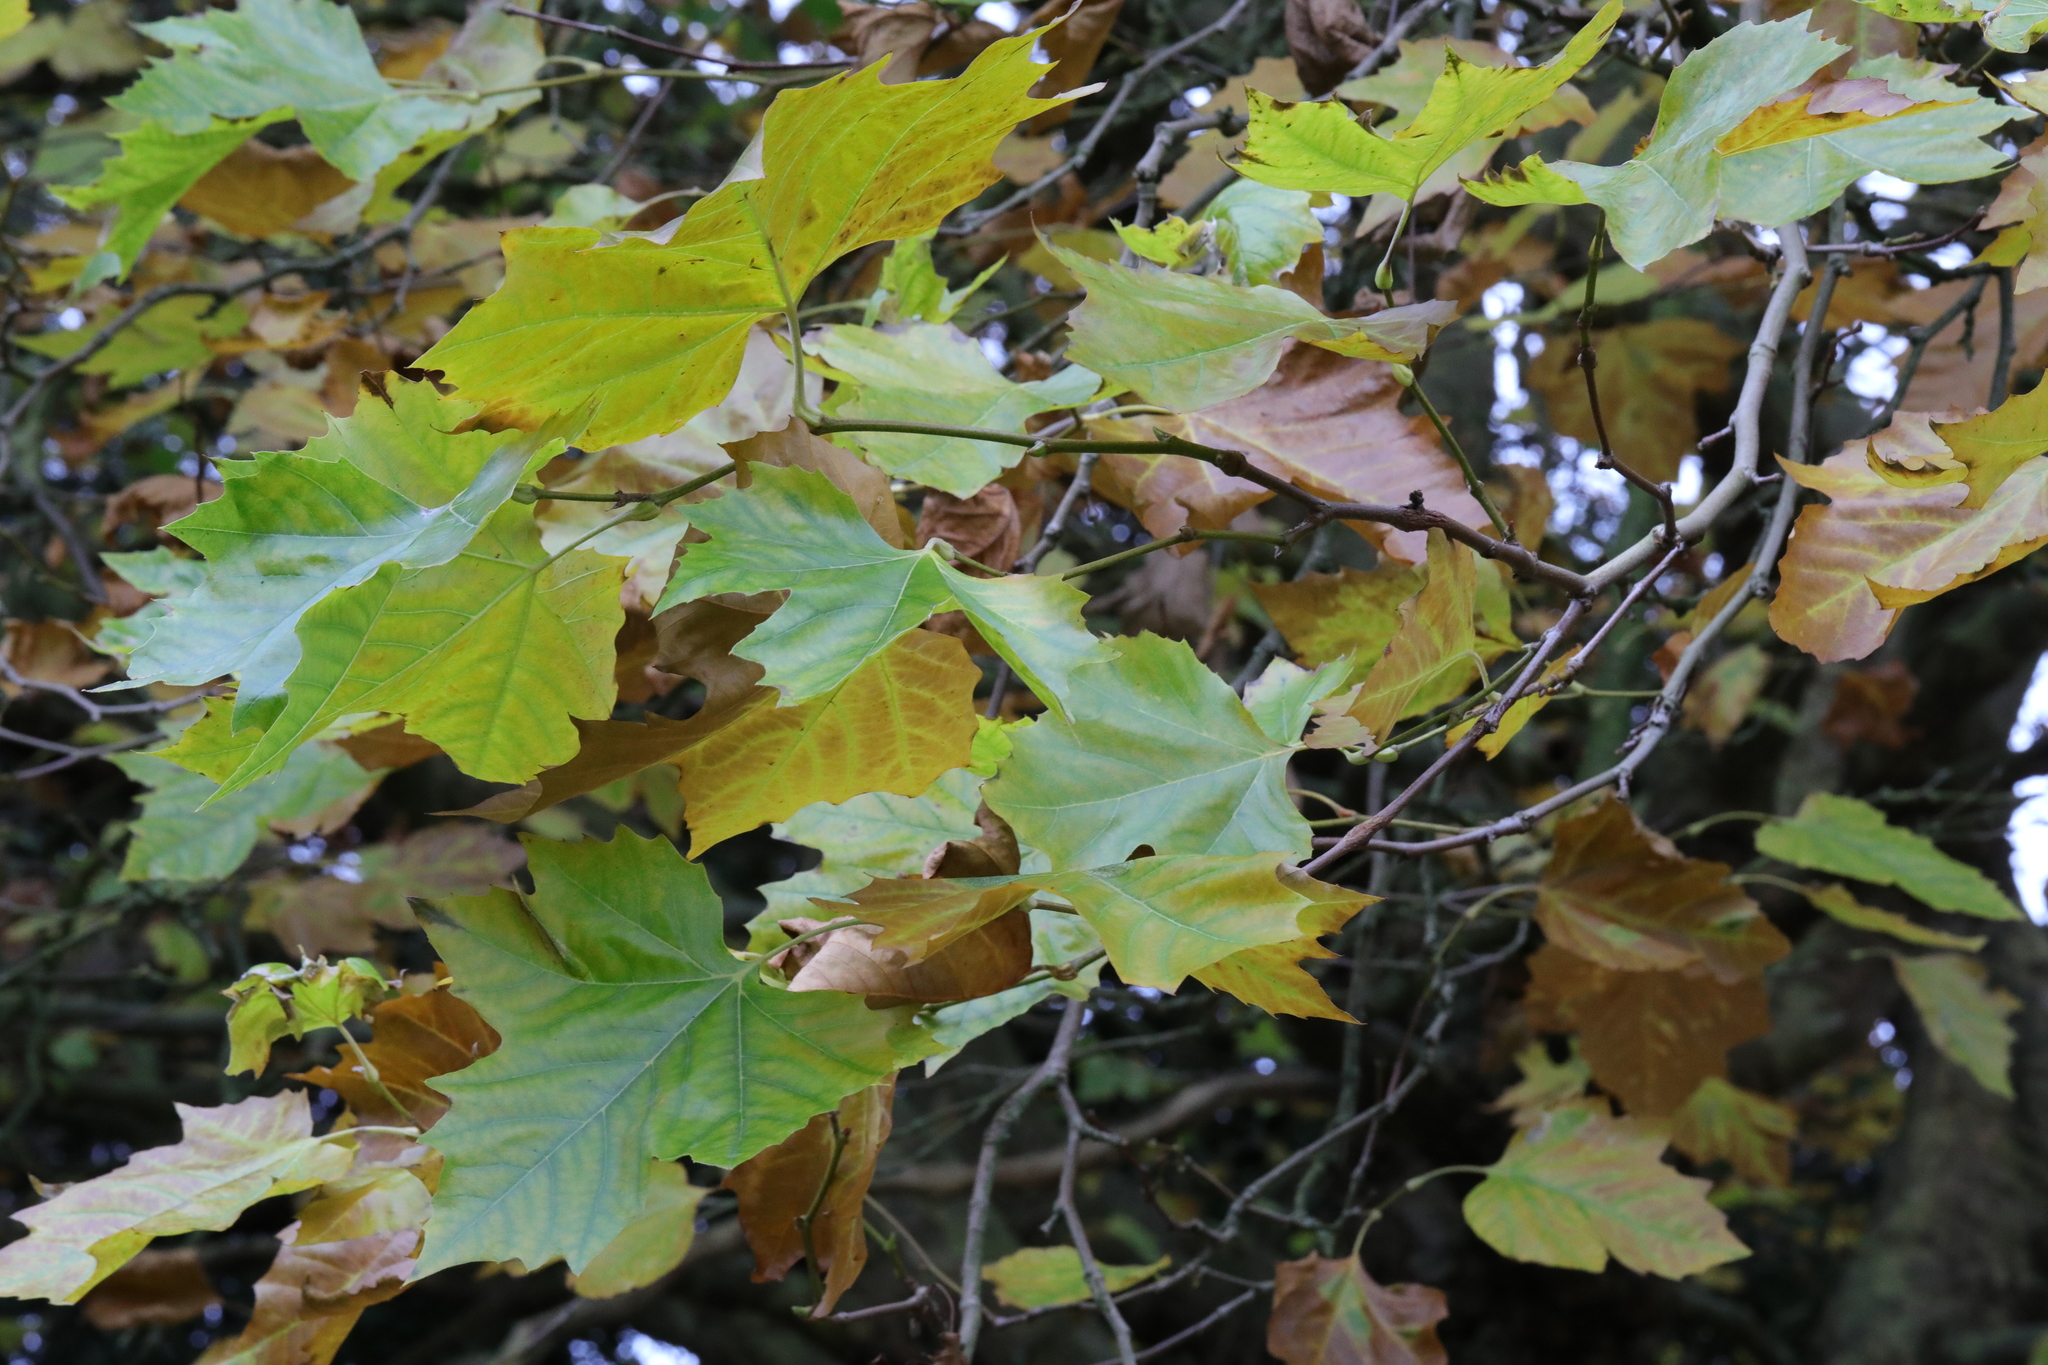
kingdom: Plantae
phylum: Tracheophyta
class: Magnoliopsida
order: Proteales
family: Platanaceae
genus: Platanus
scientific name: Platanus hispanica
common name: London plane
